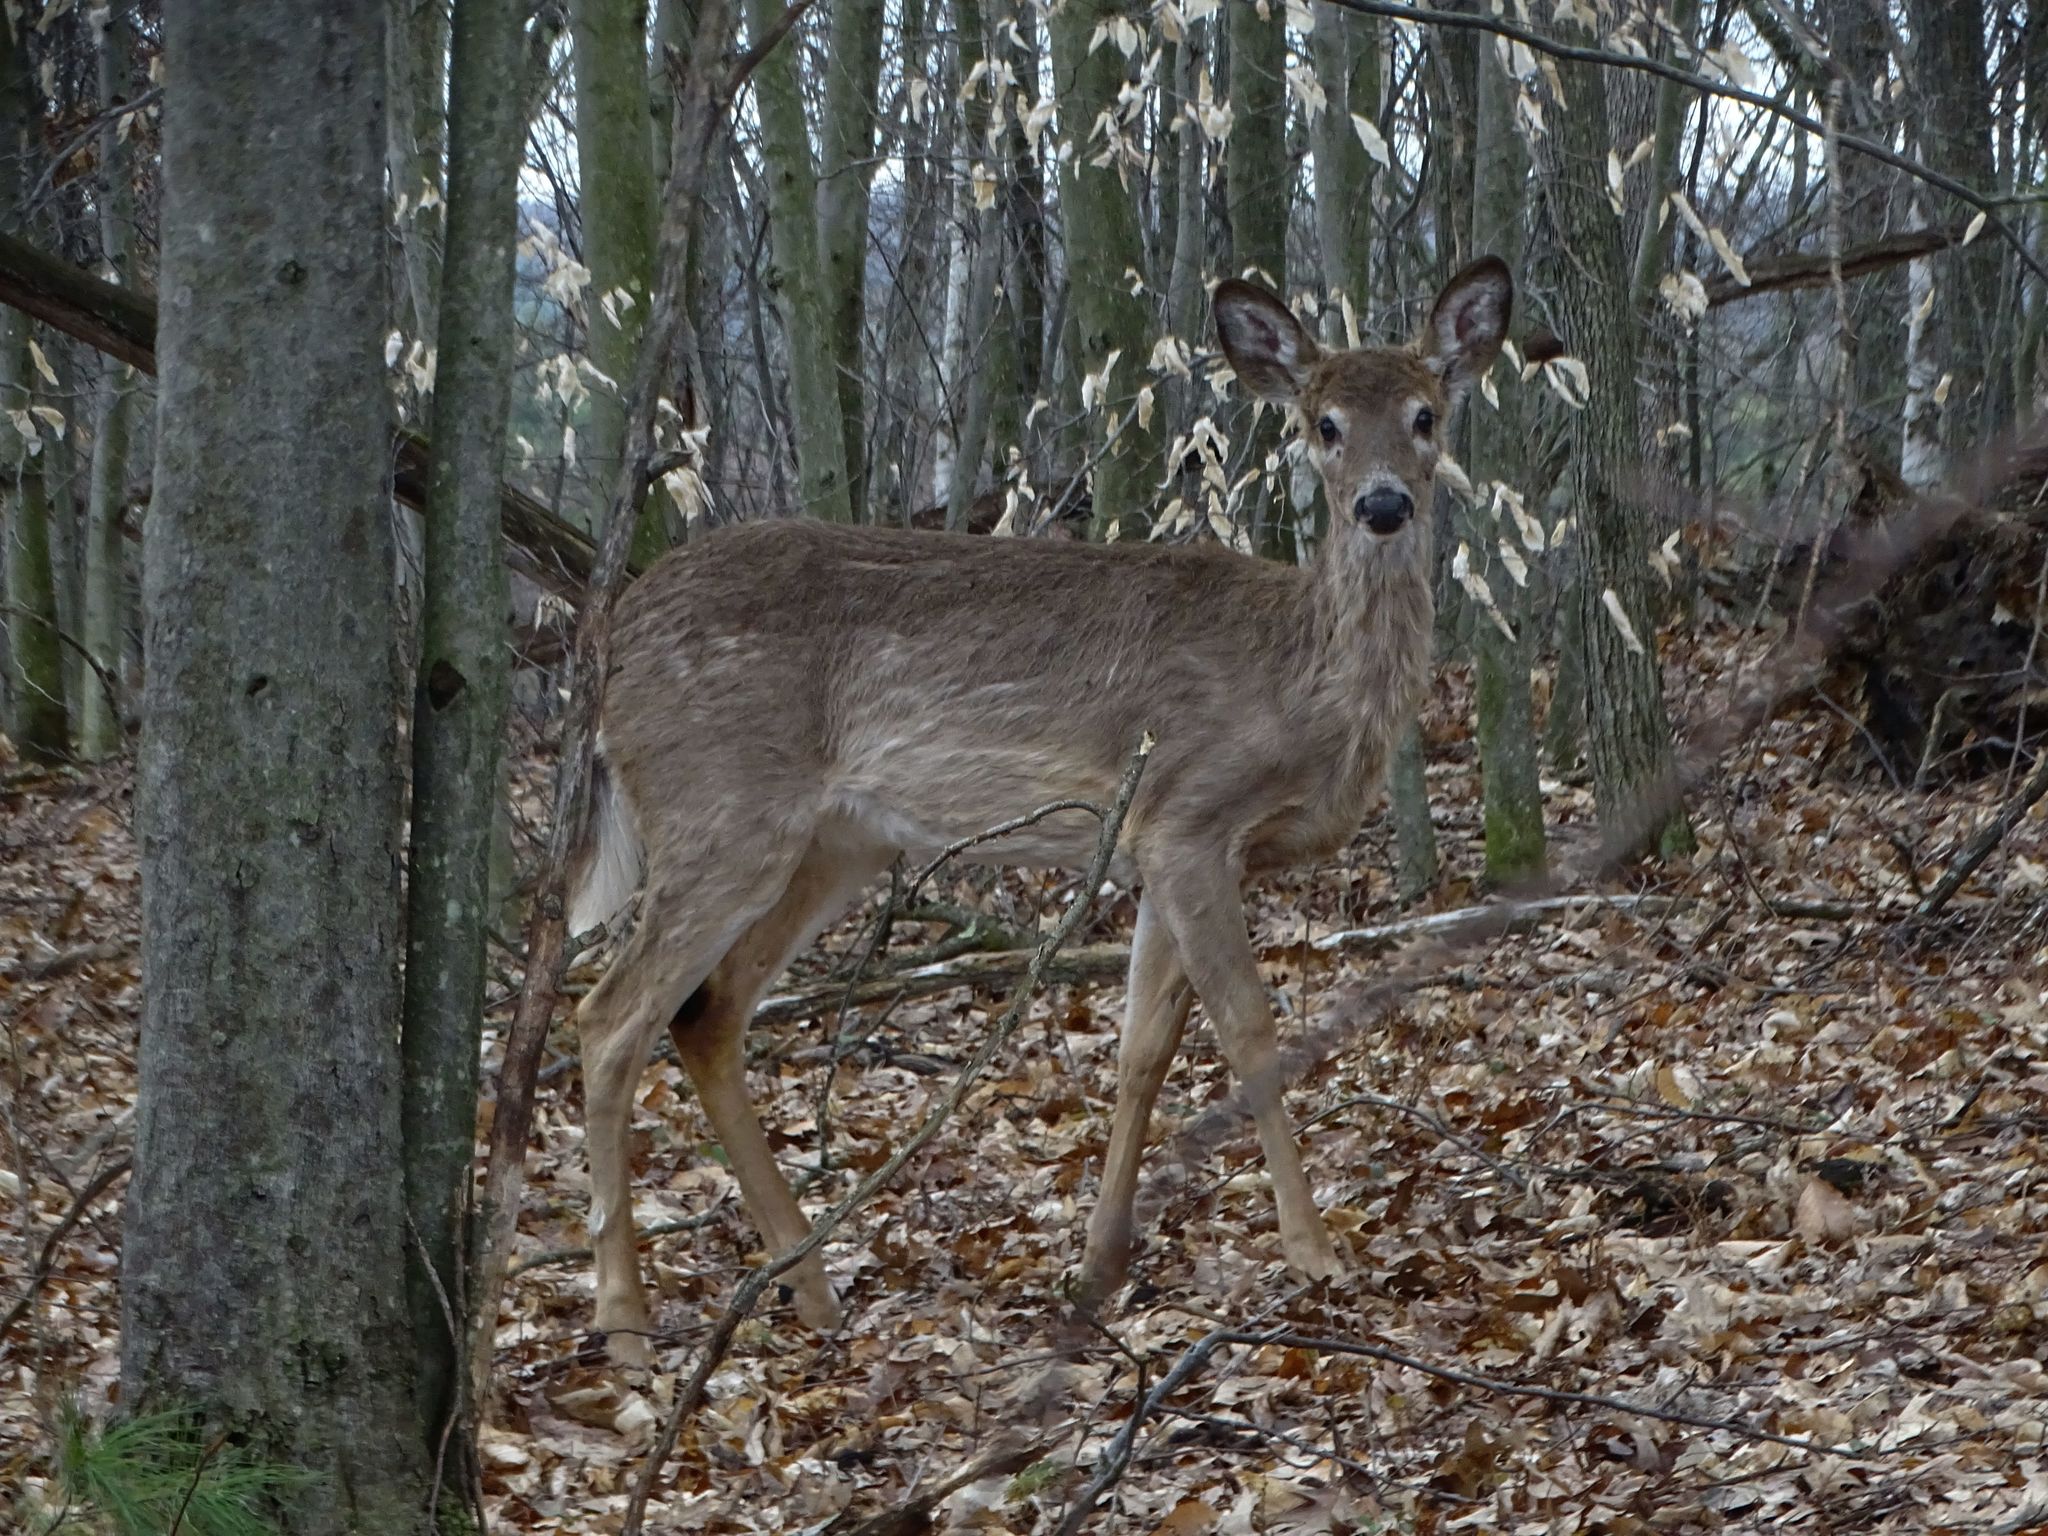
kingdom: Animalia
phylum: Chordata
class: Mammalia
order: Artiodactyla
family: Cervidae
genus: Odocoileus
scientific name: Odocoileus virginianus
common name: White-tailed deer
